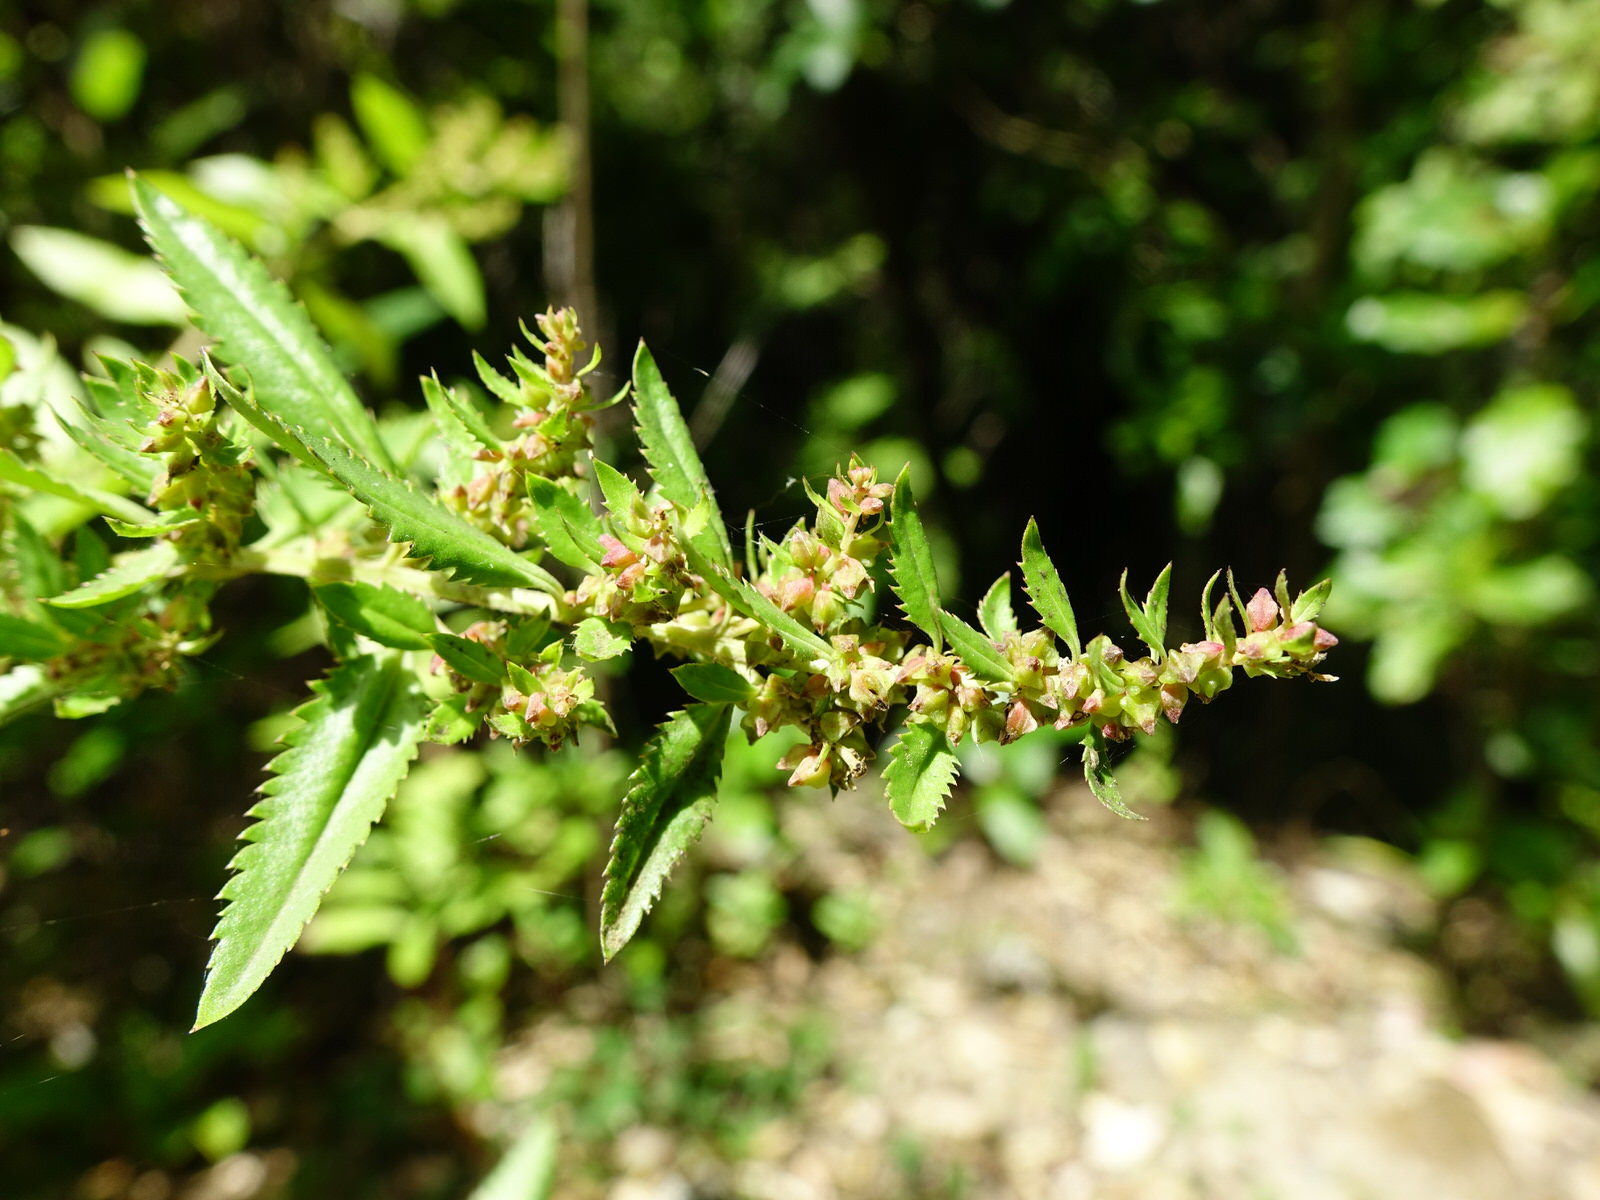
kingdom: Plantae
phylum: Tracheophyta
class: Magnoliopsida
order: Saxifragales
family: Haloragaceae
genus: Haloragis
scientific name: Haloragis erecta
